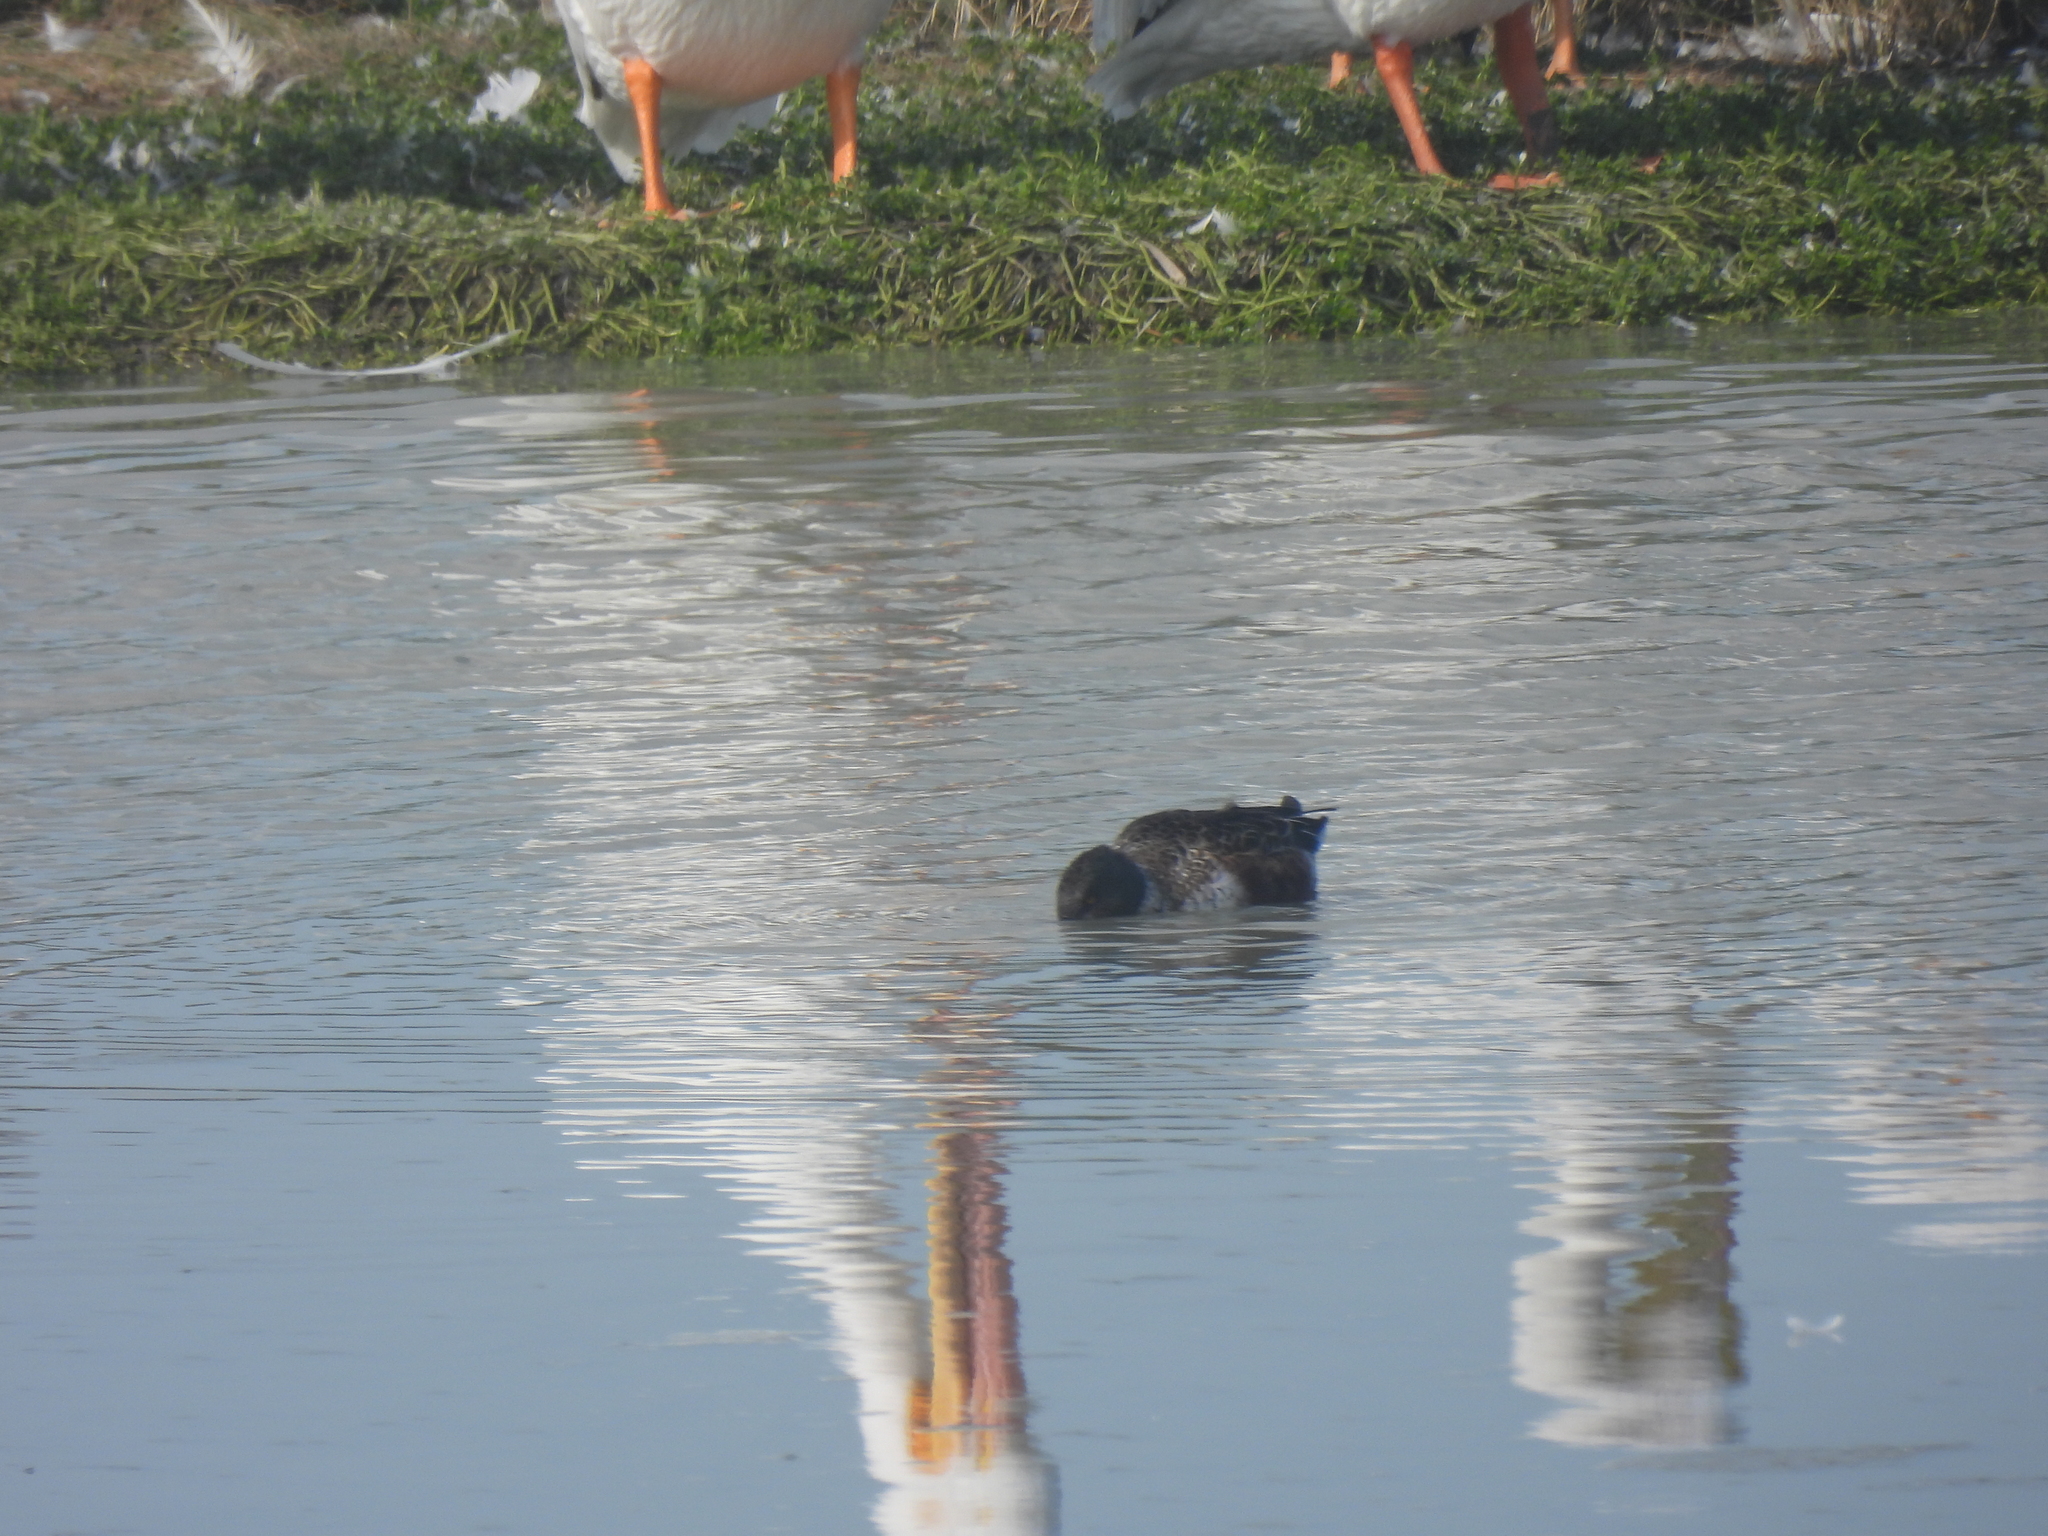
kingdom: Animalia
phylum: Chordata
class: Aves
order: Anseriformes
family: Anatidae
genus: Spatula
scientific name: Spatula clypeata
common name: Northern shoveler
